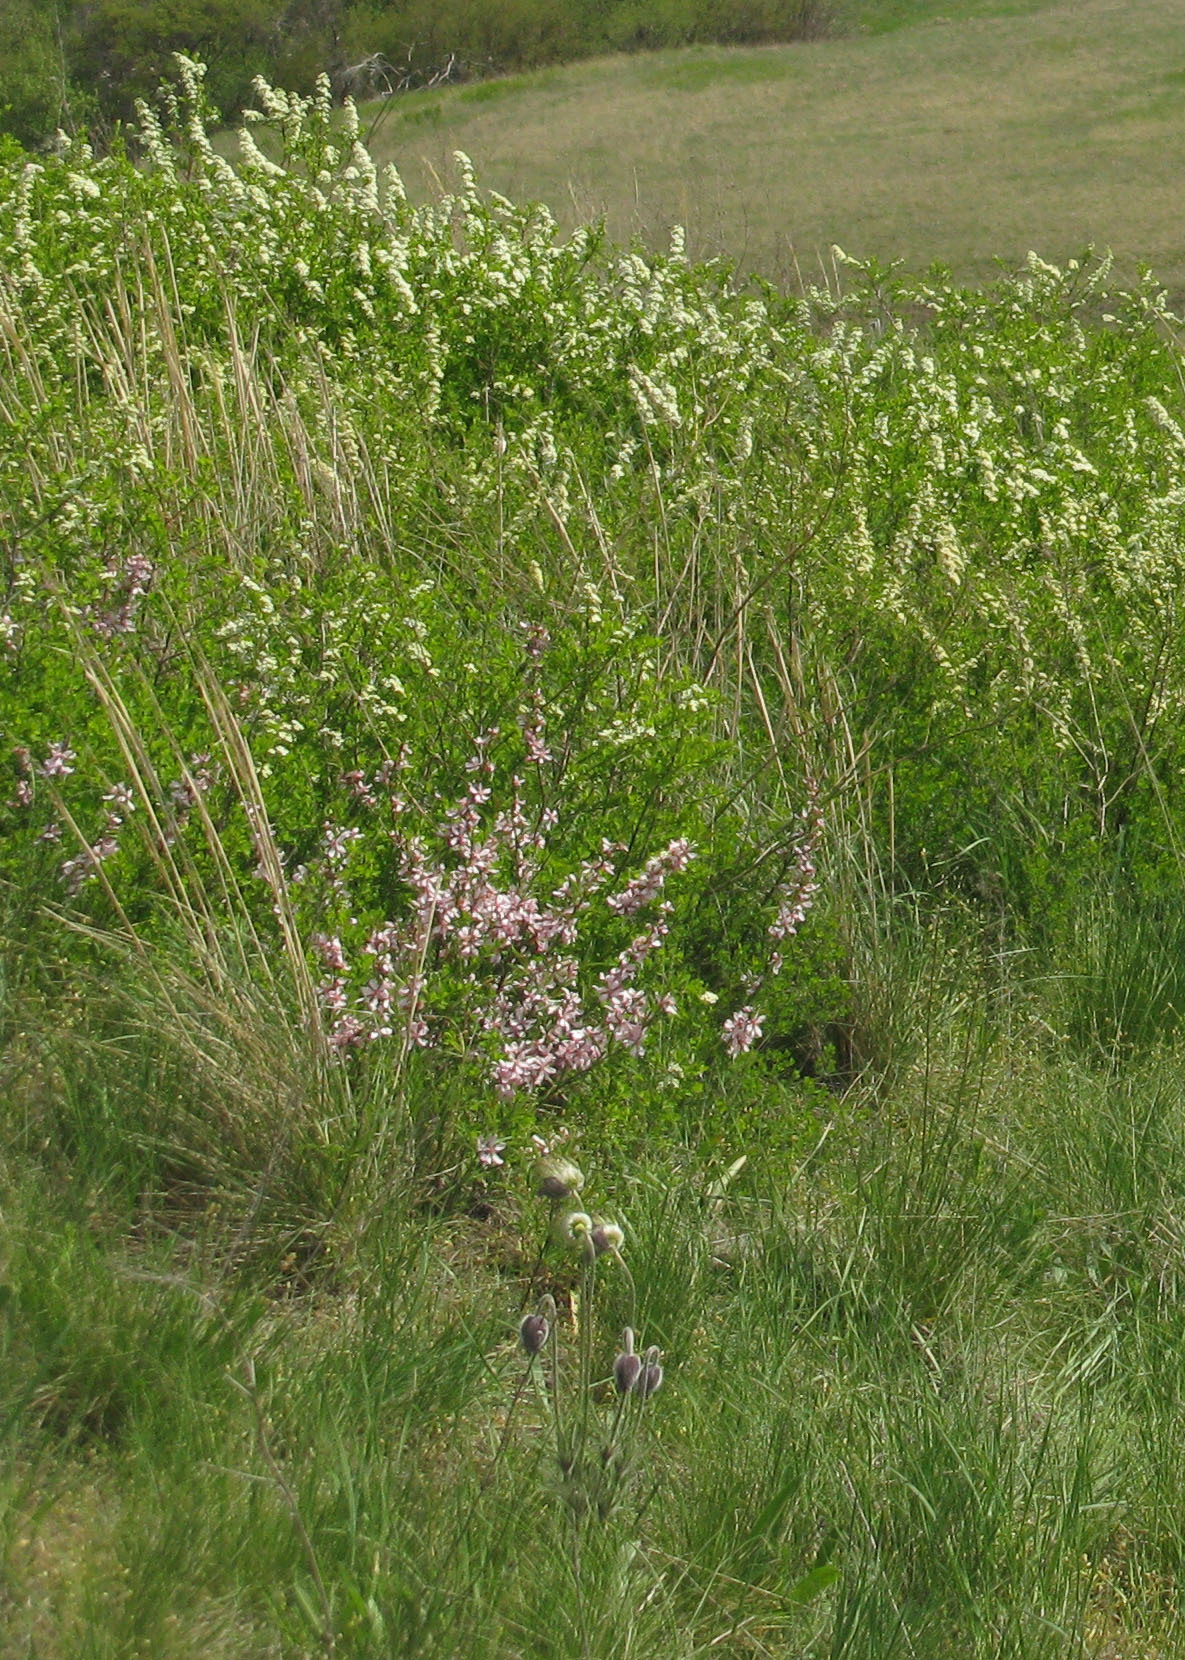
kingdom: Plantae
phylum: Tracheophyta
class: Magnoliopsida
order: Ranunculales
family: Ranunculaceae
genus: Pulsatilla
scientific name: Pulsatilla pratensis
